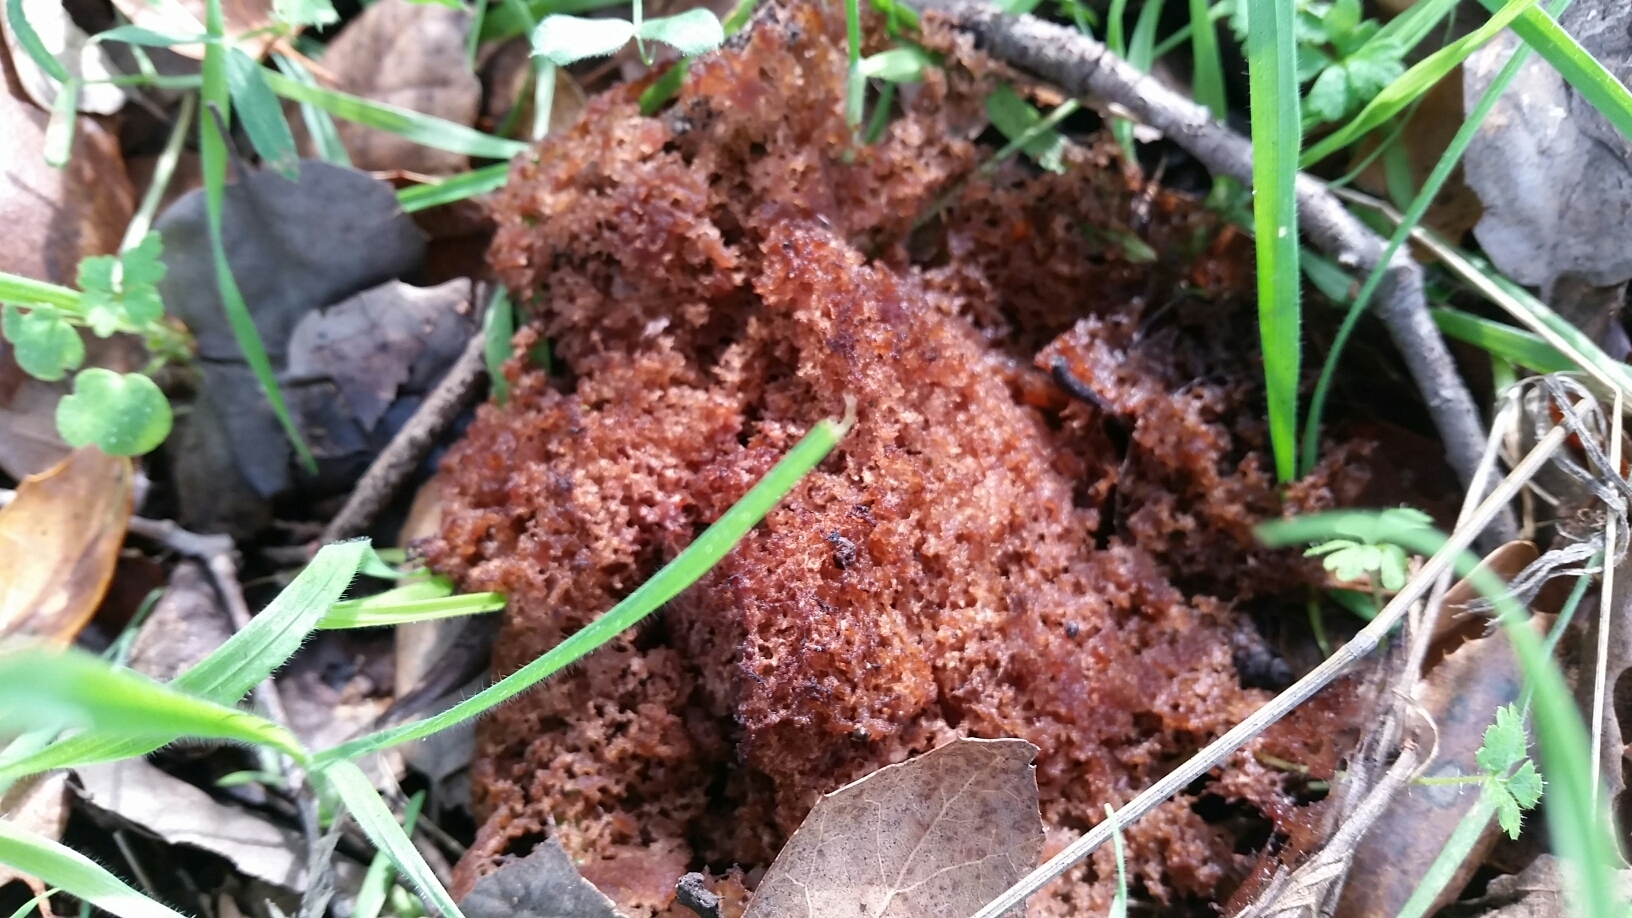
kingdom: Fungi
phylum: Basidiomycota
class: Agaricomycetes
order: Agaricales
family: Tricholomataceae
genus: Collybia
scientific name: Collybia
